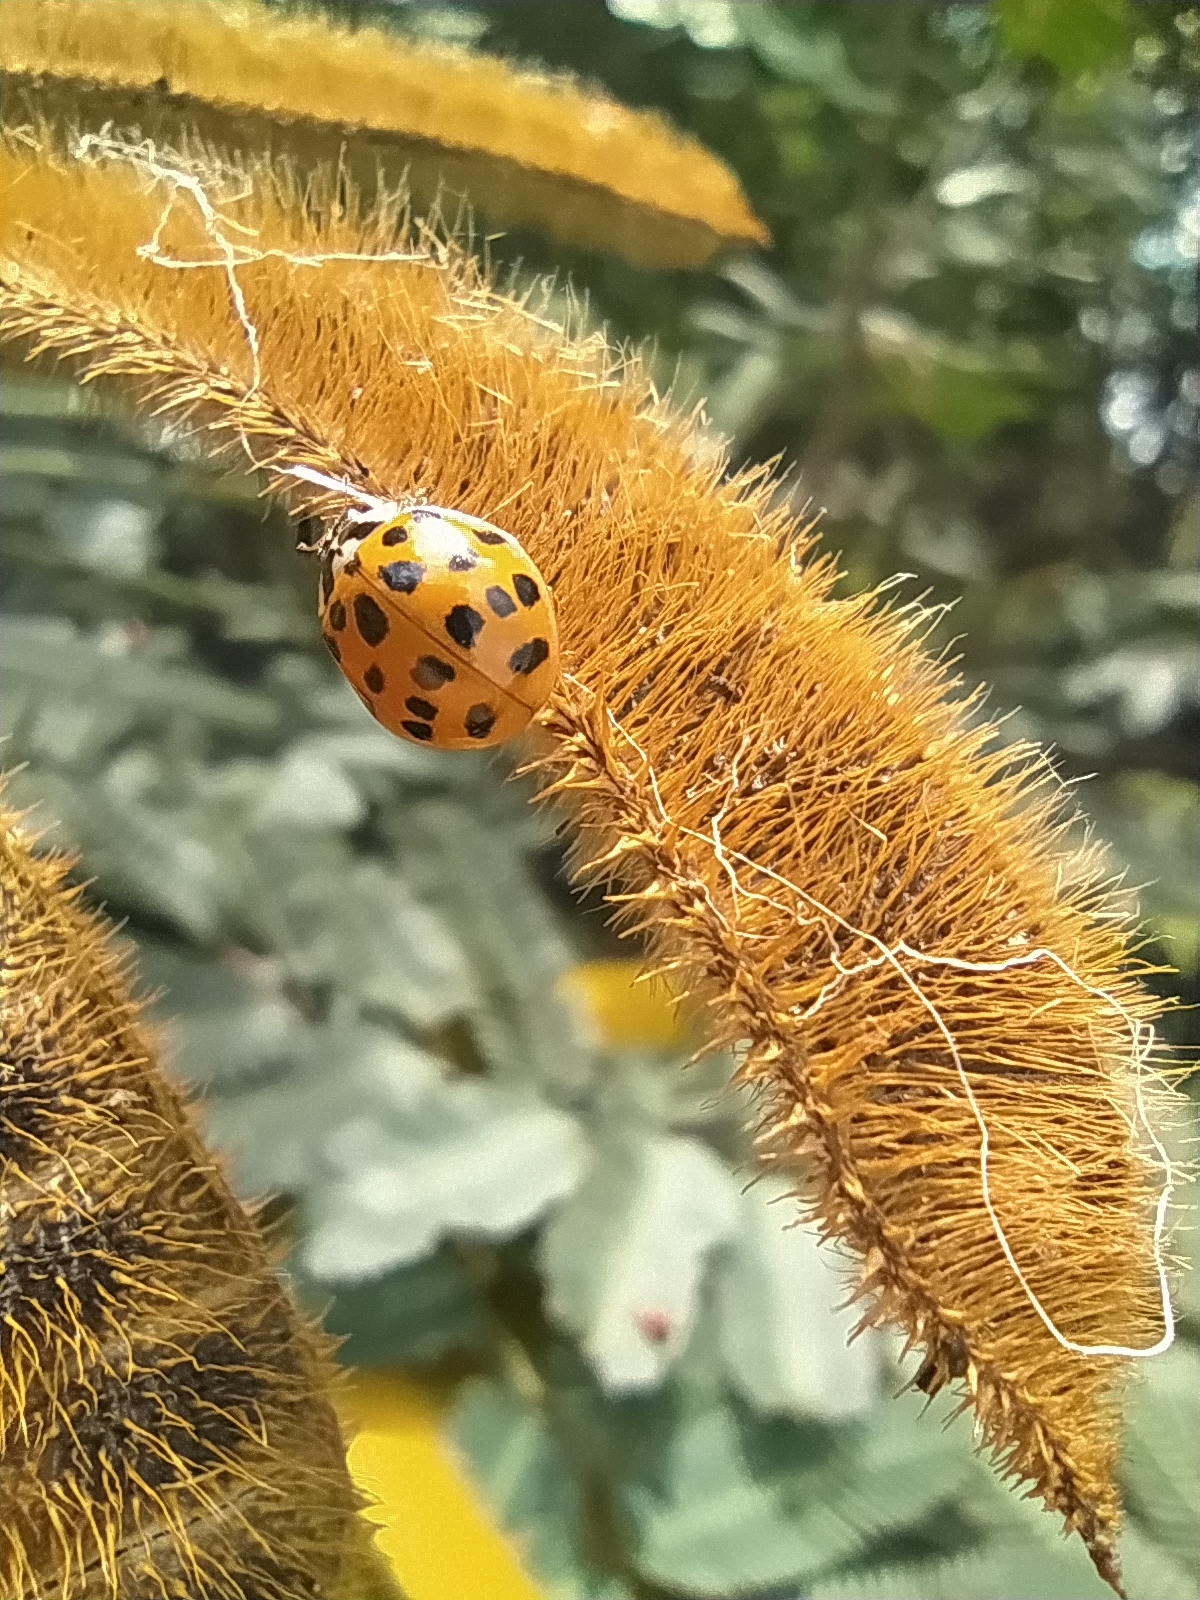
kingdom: Animalia
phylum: Arthropoda
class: Insecta
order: Coleoptera
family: Coccinellidae
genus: Harmonia
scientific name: Harmonia axyridis
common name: Harlequin ladybird
